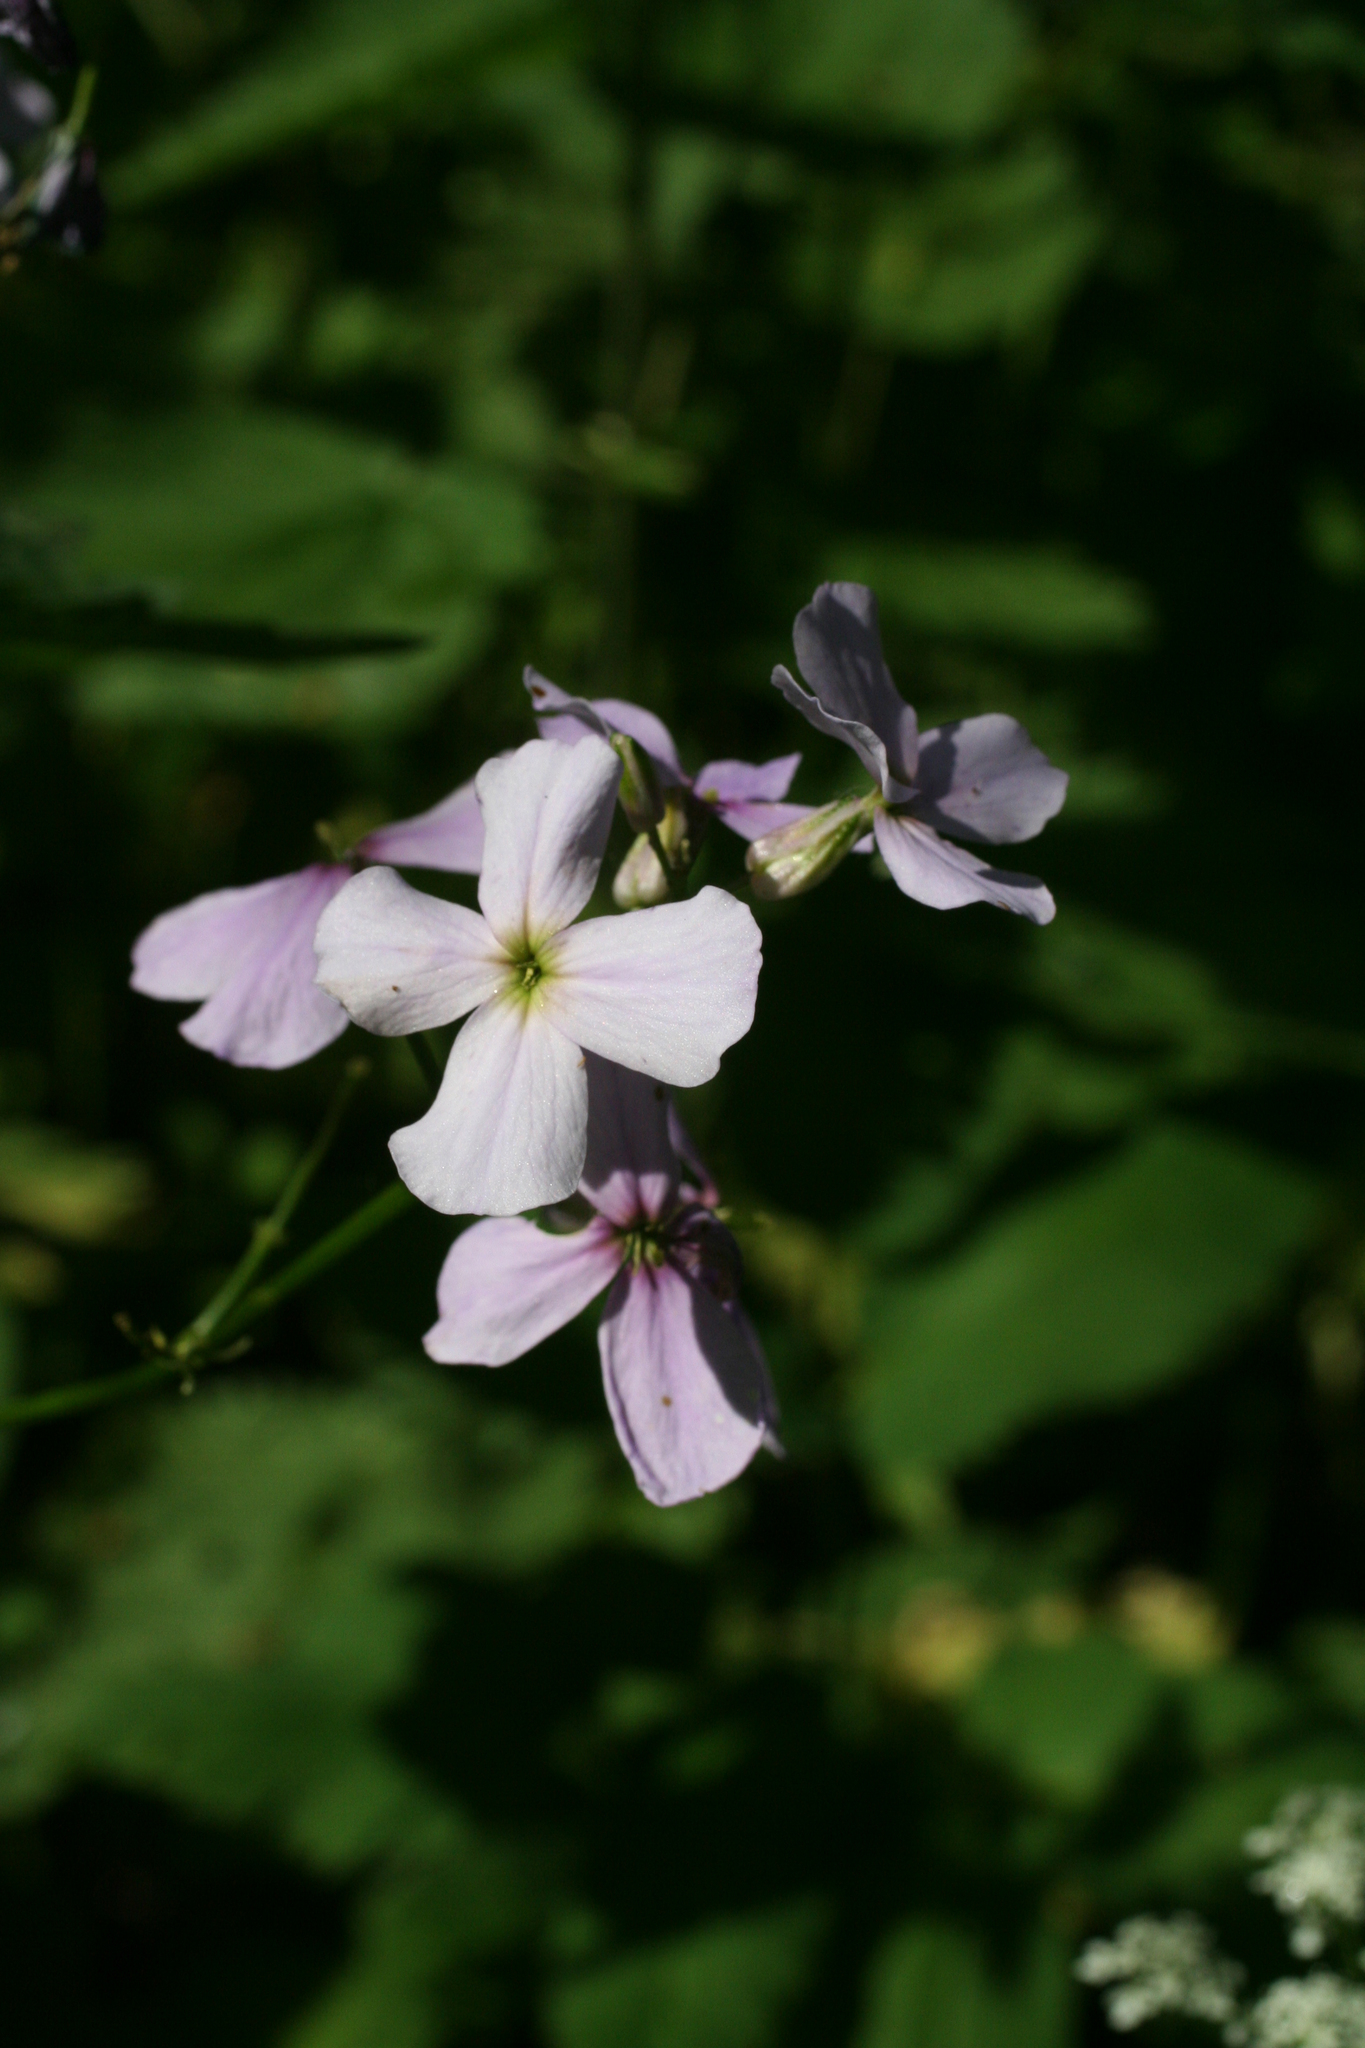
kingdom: Plantae
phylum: Tracheophyta
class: Magnoliopsida
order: Brassicales
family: Brassicaceae
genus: Hesperis
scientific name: Hesperis matronalis
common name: Dame's-violet
